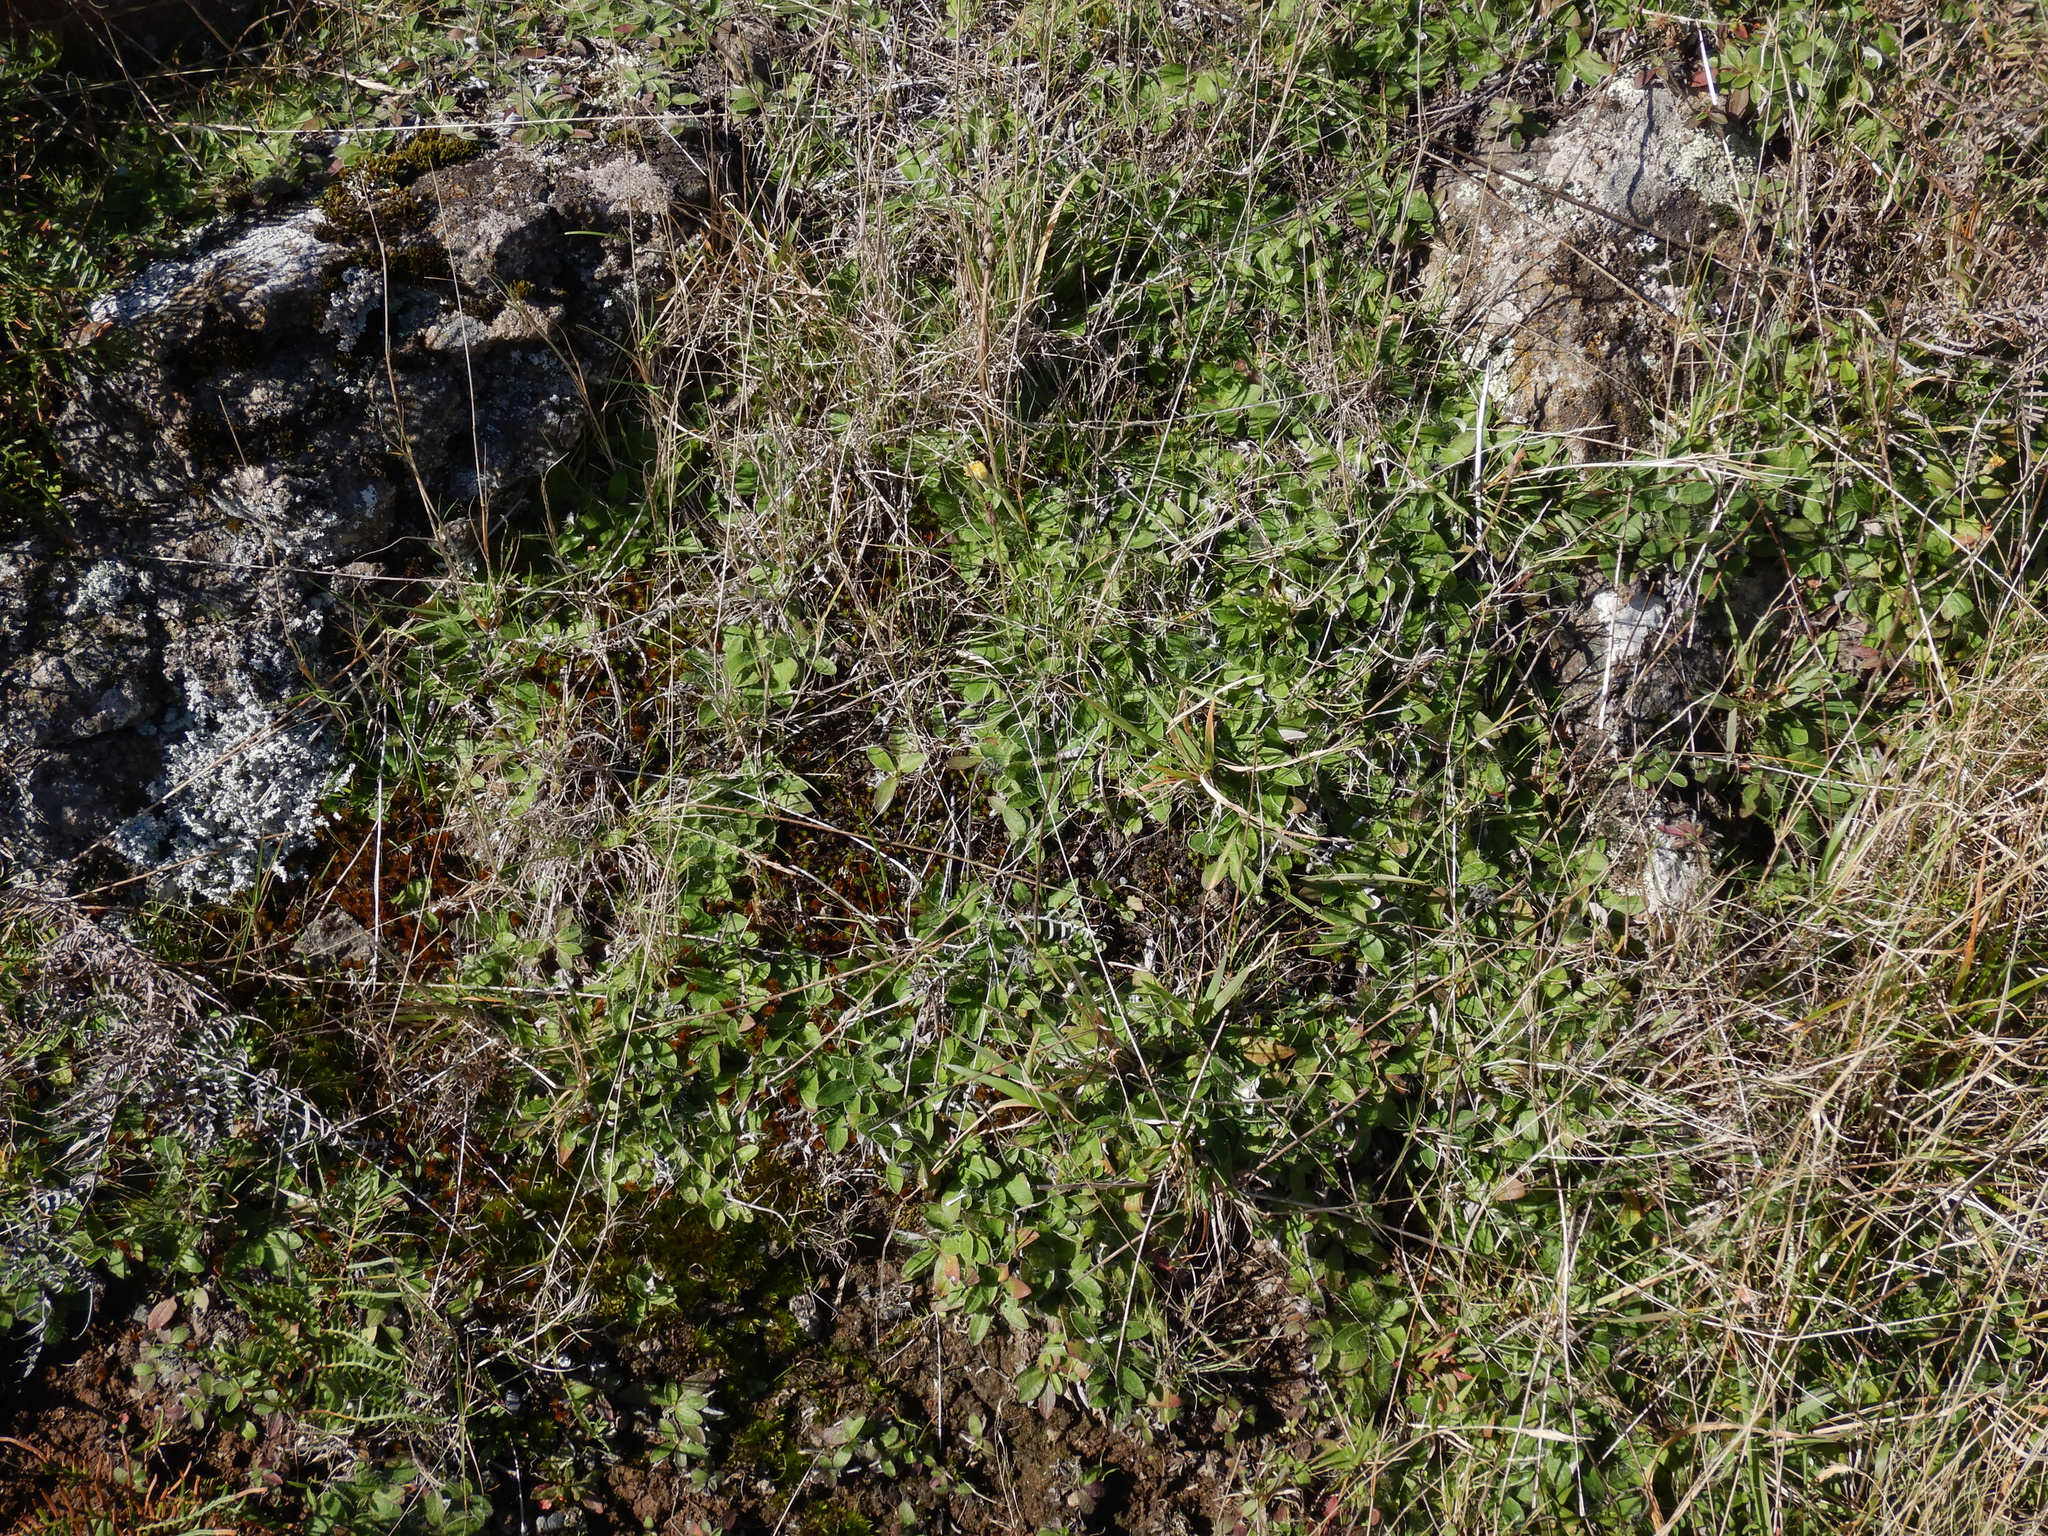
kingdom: Plantae
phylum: Tracheophyta
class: Magnoliopsida
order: Asterales
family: Asteraceae
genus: Pilosella
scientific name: Pilosella officinarum
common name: Mouse-ear hawkweed
